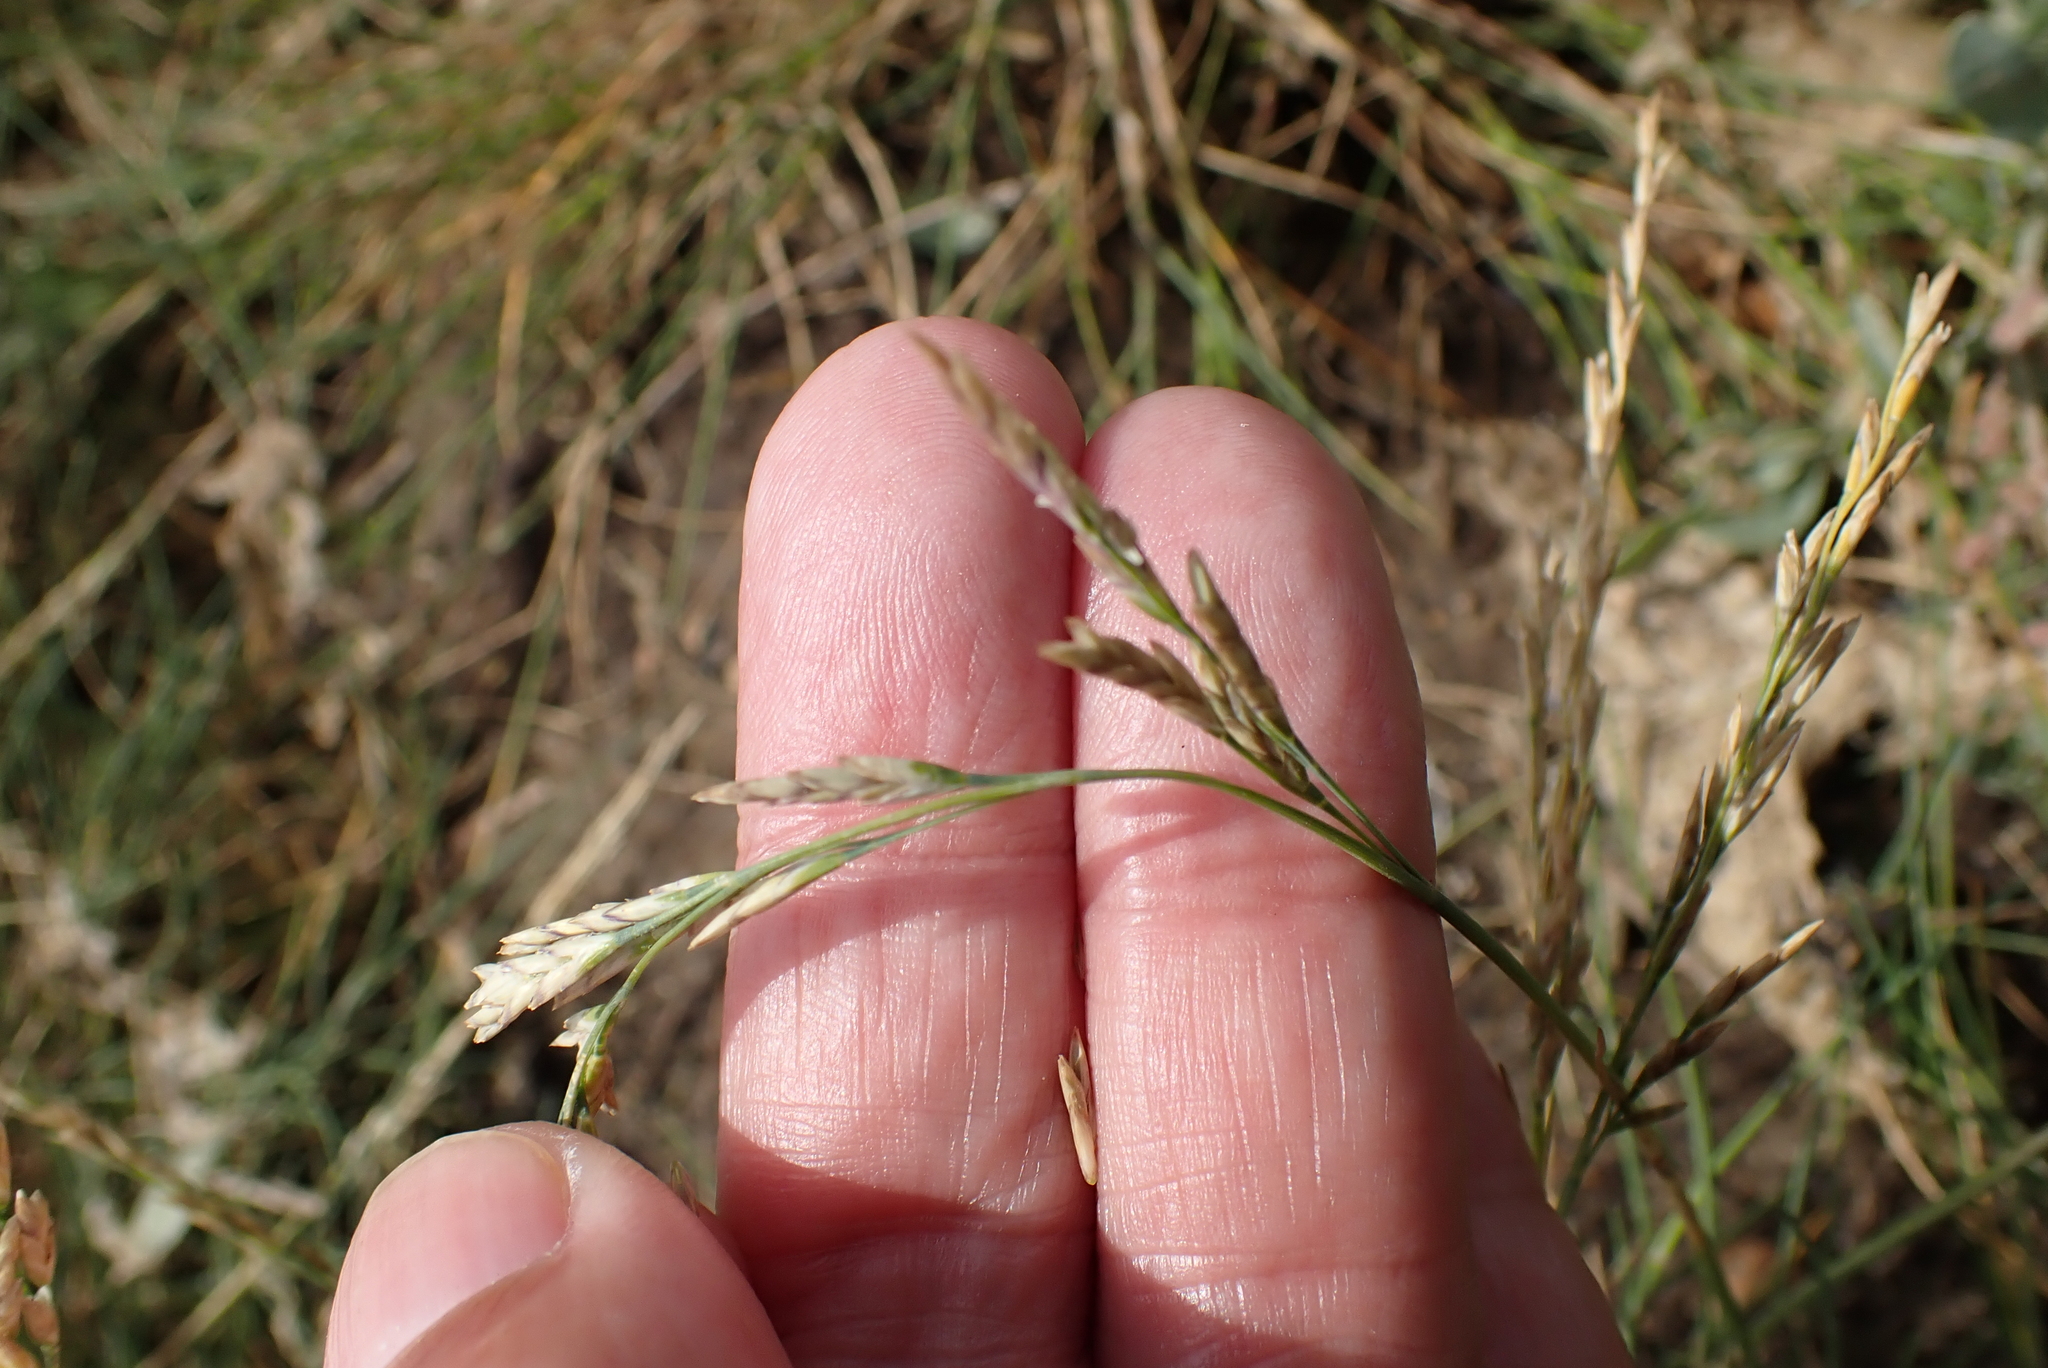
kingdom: Plantae
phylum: Tracheophyta
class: Liliopsida
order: Poales
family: Poaceae
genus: Puccinellia
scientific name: Puccinellia distans
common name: Weeping alkaligrass
